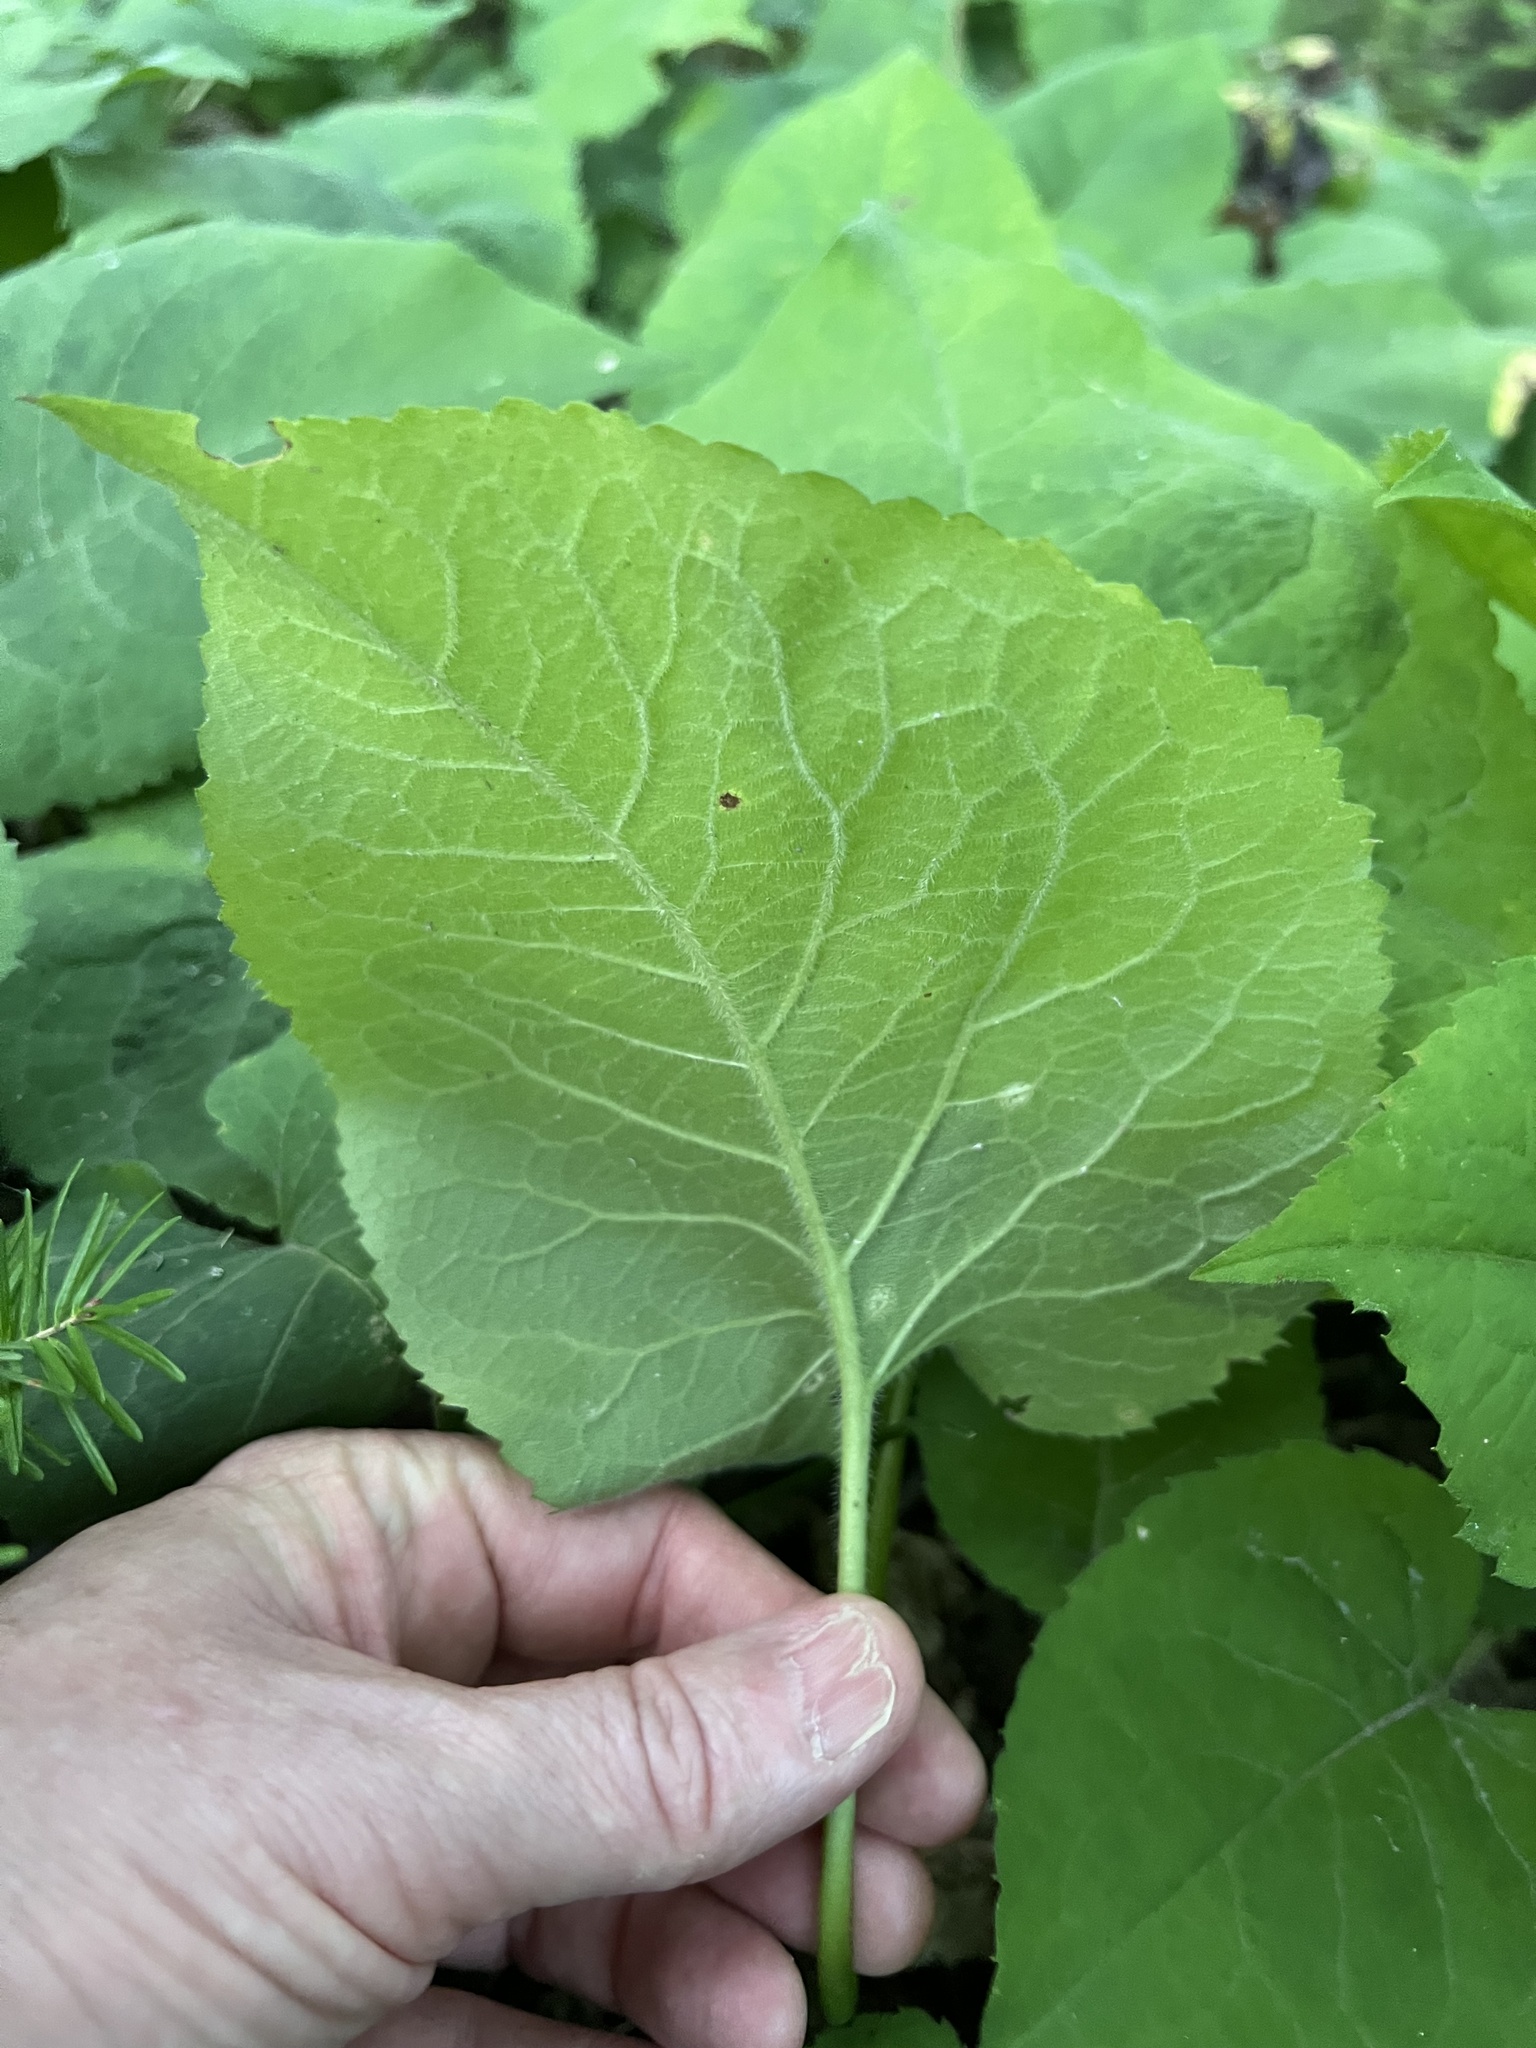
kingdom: Plantae
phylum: Tracheophyta
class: Magnoliopsida
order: Asterales
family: Asteraceae
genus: Eurybia
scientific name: Eurybia macrophylla
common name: Big-leaved aster
